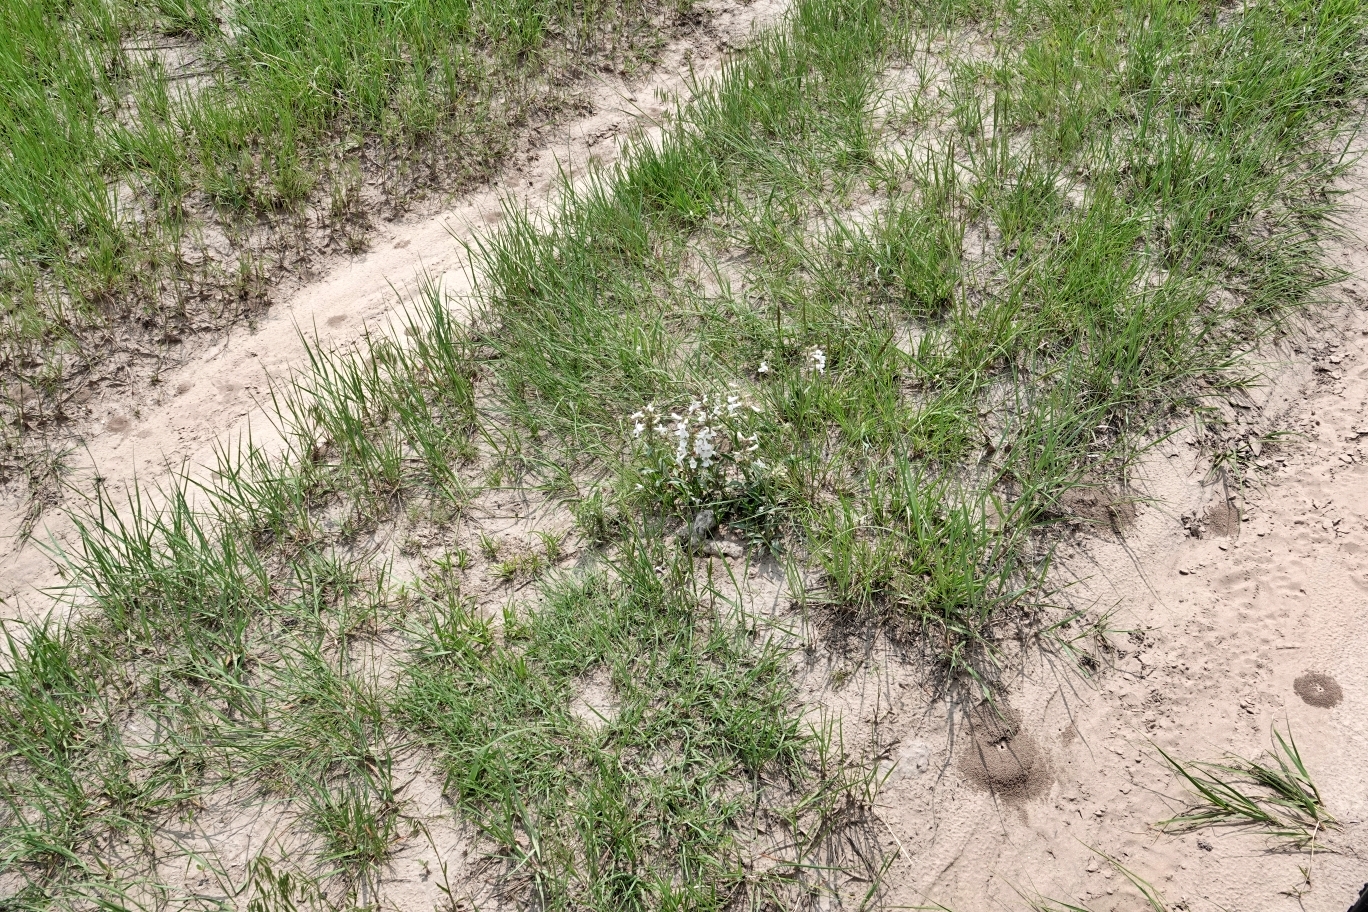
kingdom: Plantae
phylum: Tracheophyta
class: Magnoliopsida
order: Lamiales
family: Plantaginaceae
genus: Penstemon
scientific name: Penstemon albidus
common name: White beardtongue
